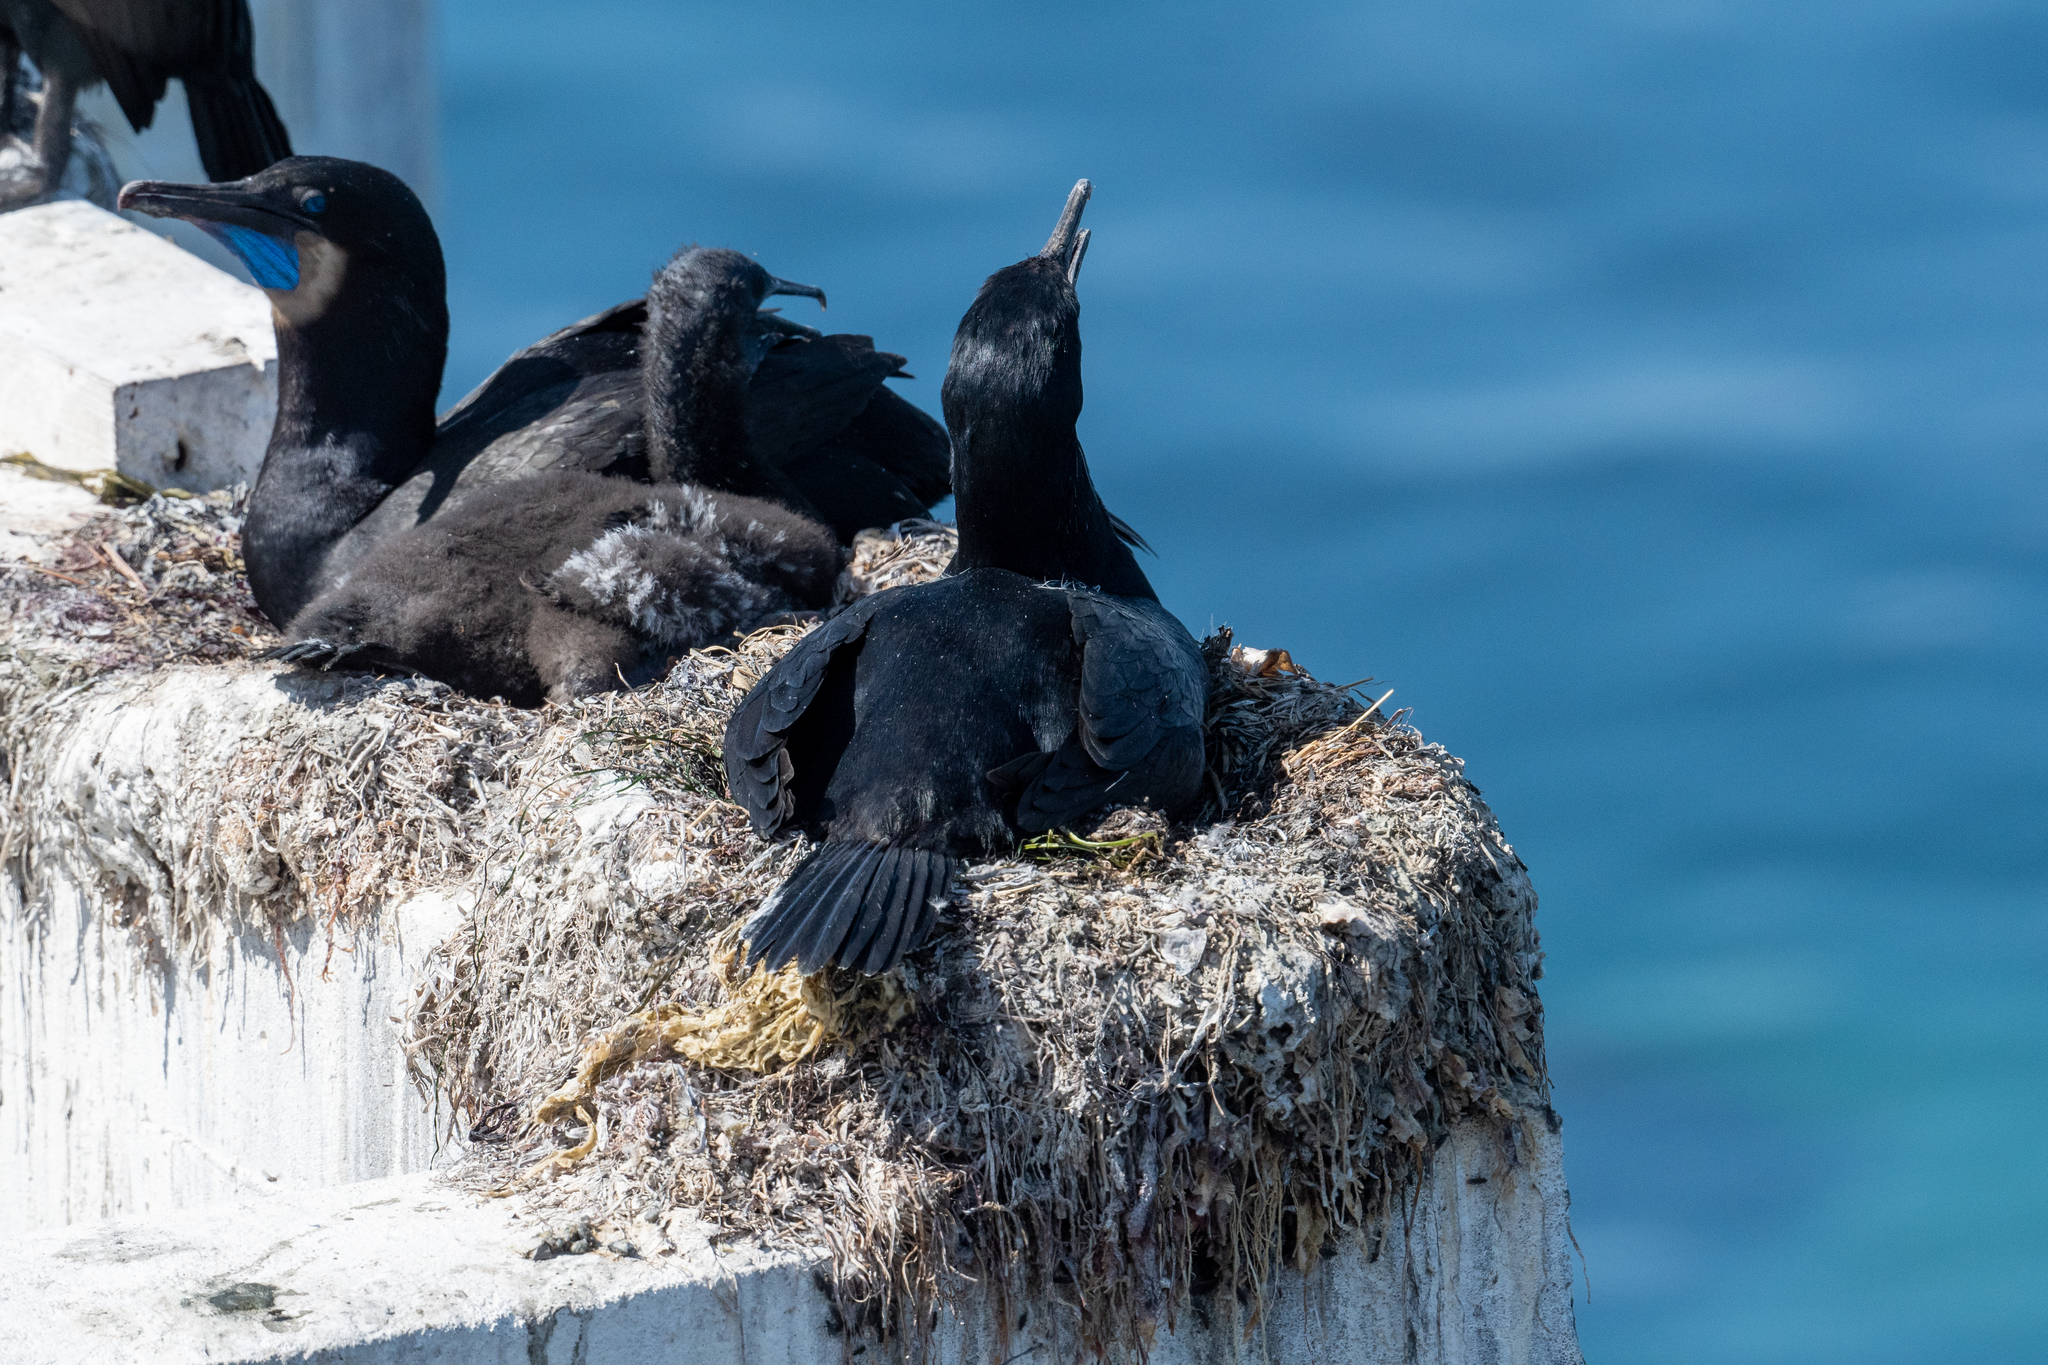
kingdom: Animalia
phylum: Chordata
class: Aves
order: Suliformes
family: Phalacrocoracidae
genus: Urile
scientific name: Urile penicillatus
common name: Brandt's cormorant
